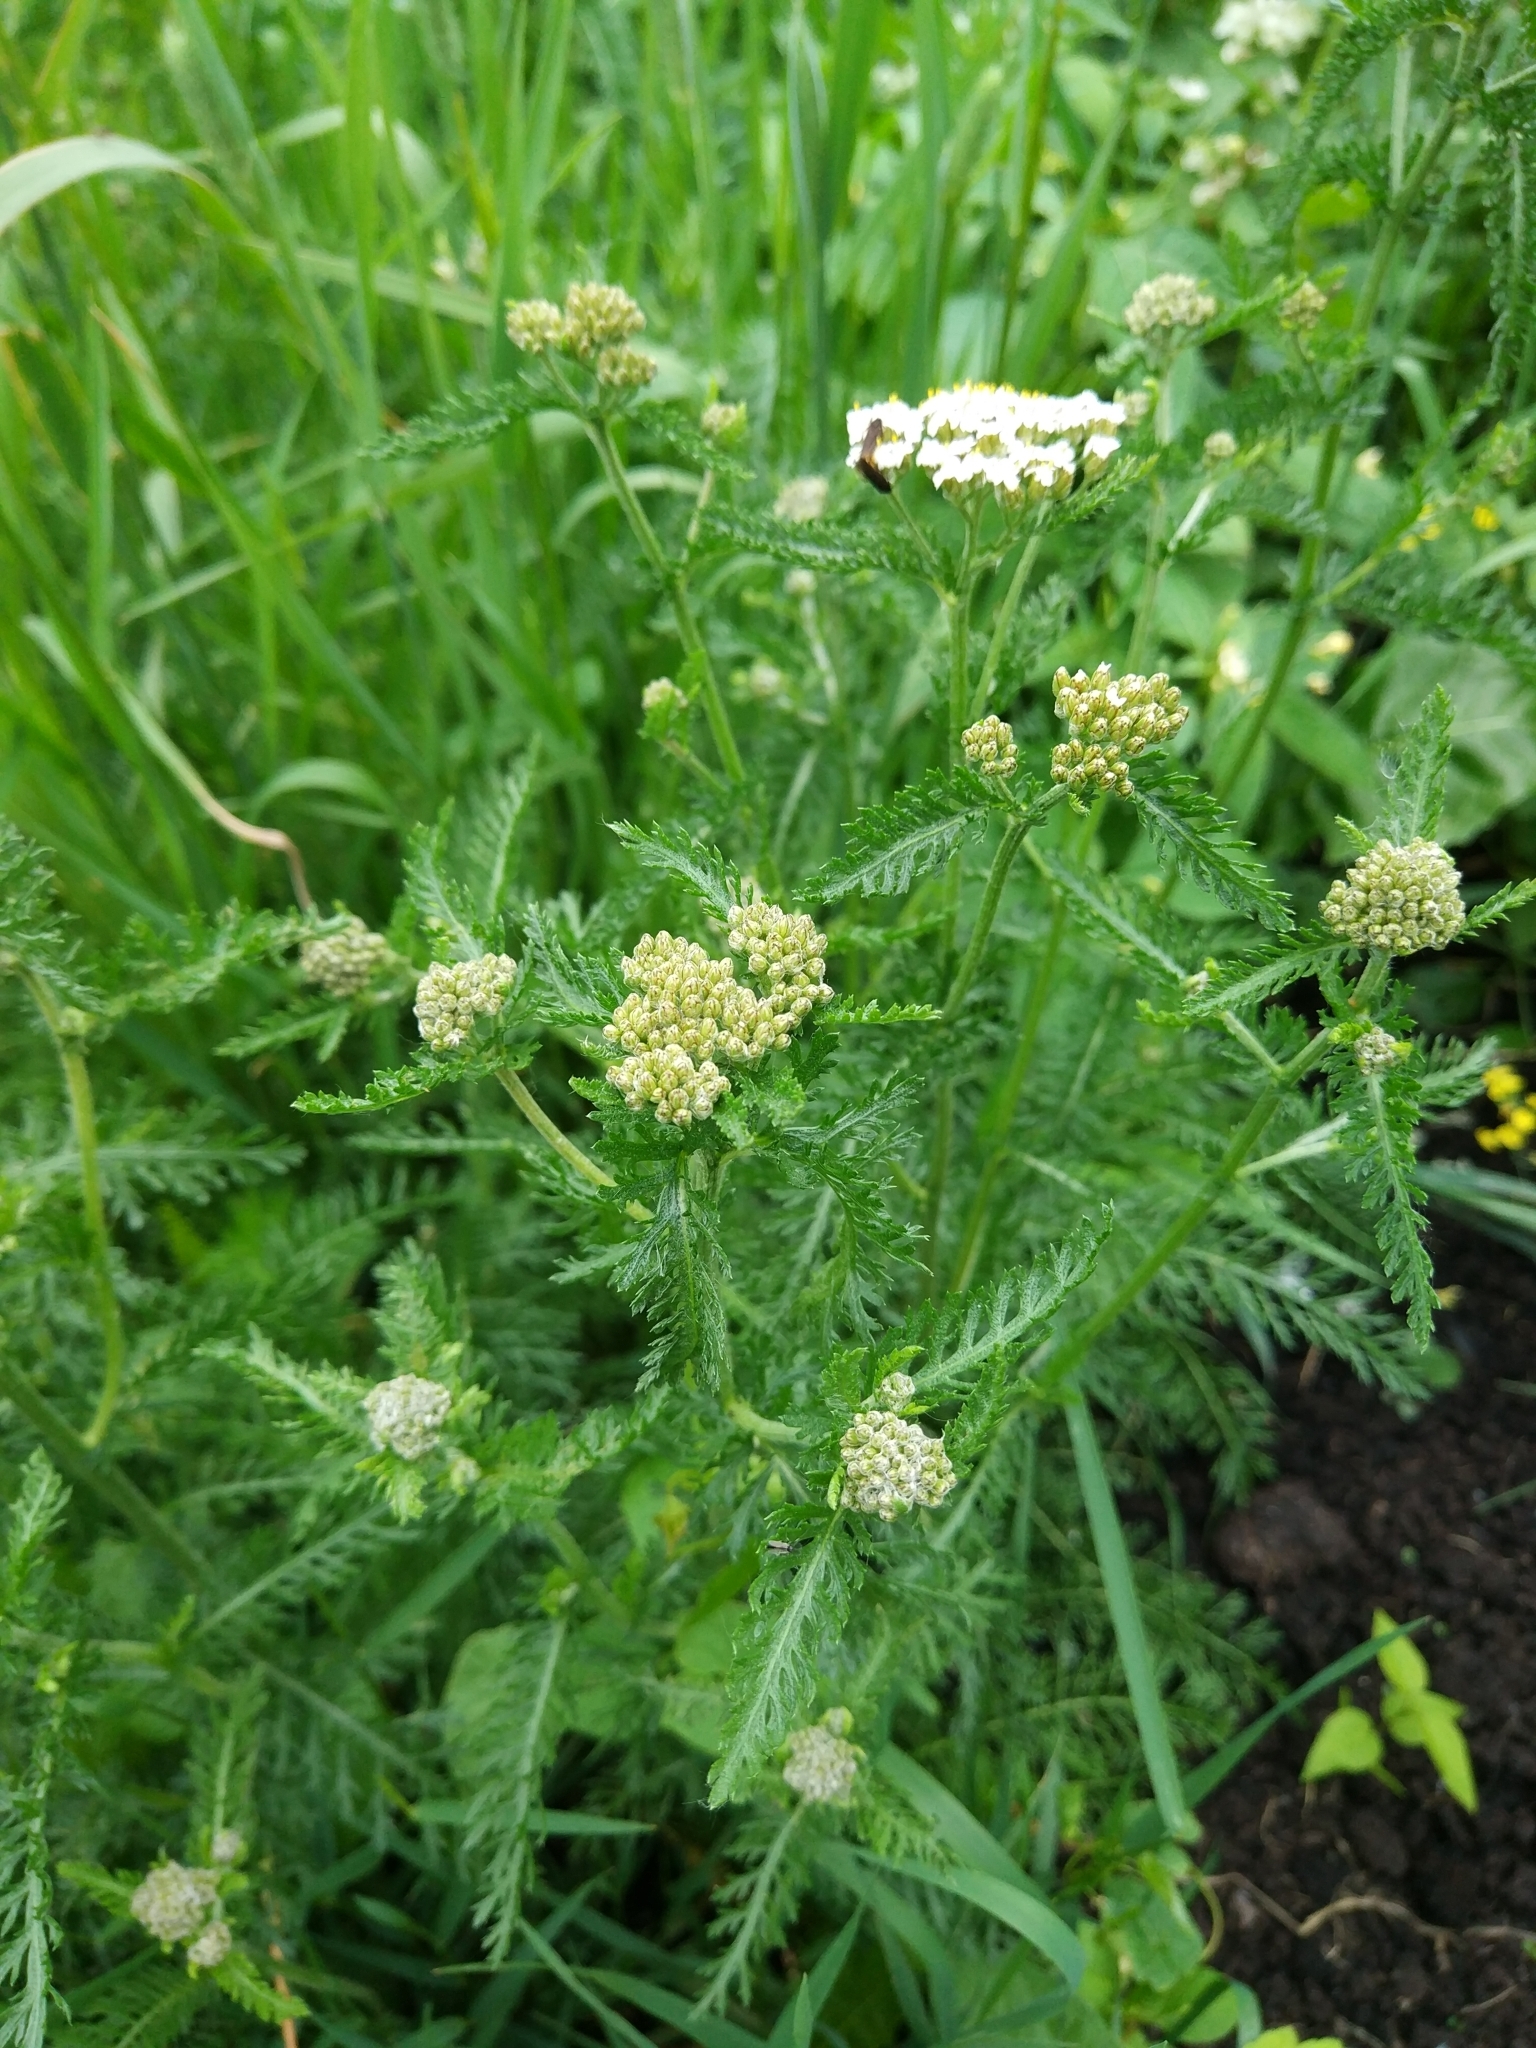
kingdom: Plantae
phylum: Tracheophyta
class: Magnoliopsida
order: Asterales
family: Asteraceae
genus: Achillea
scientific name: Achillea millefolium
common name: Yarrow
